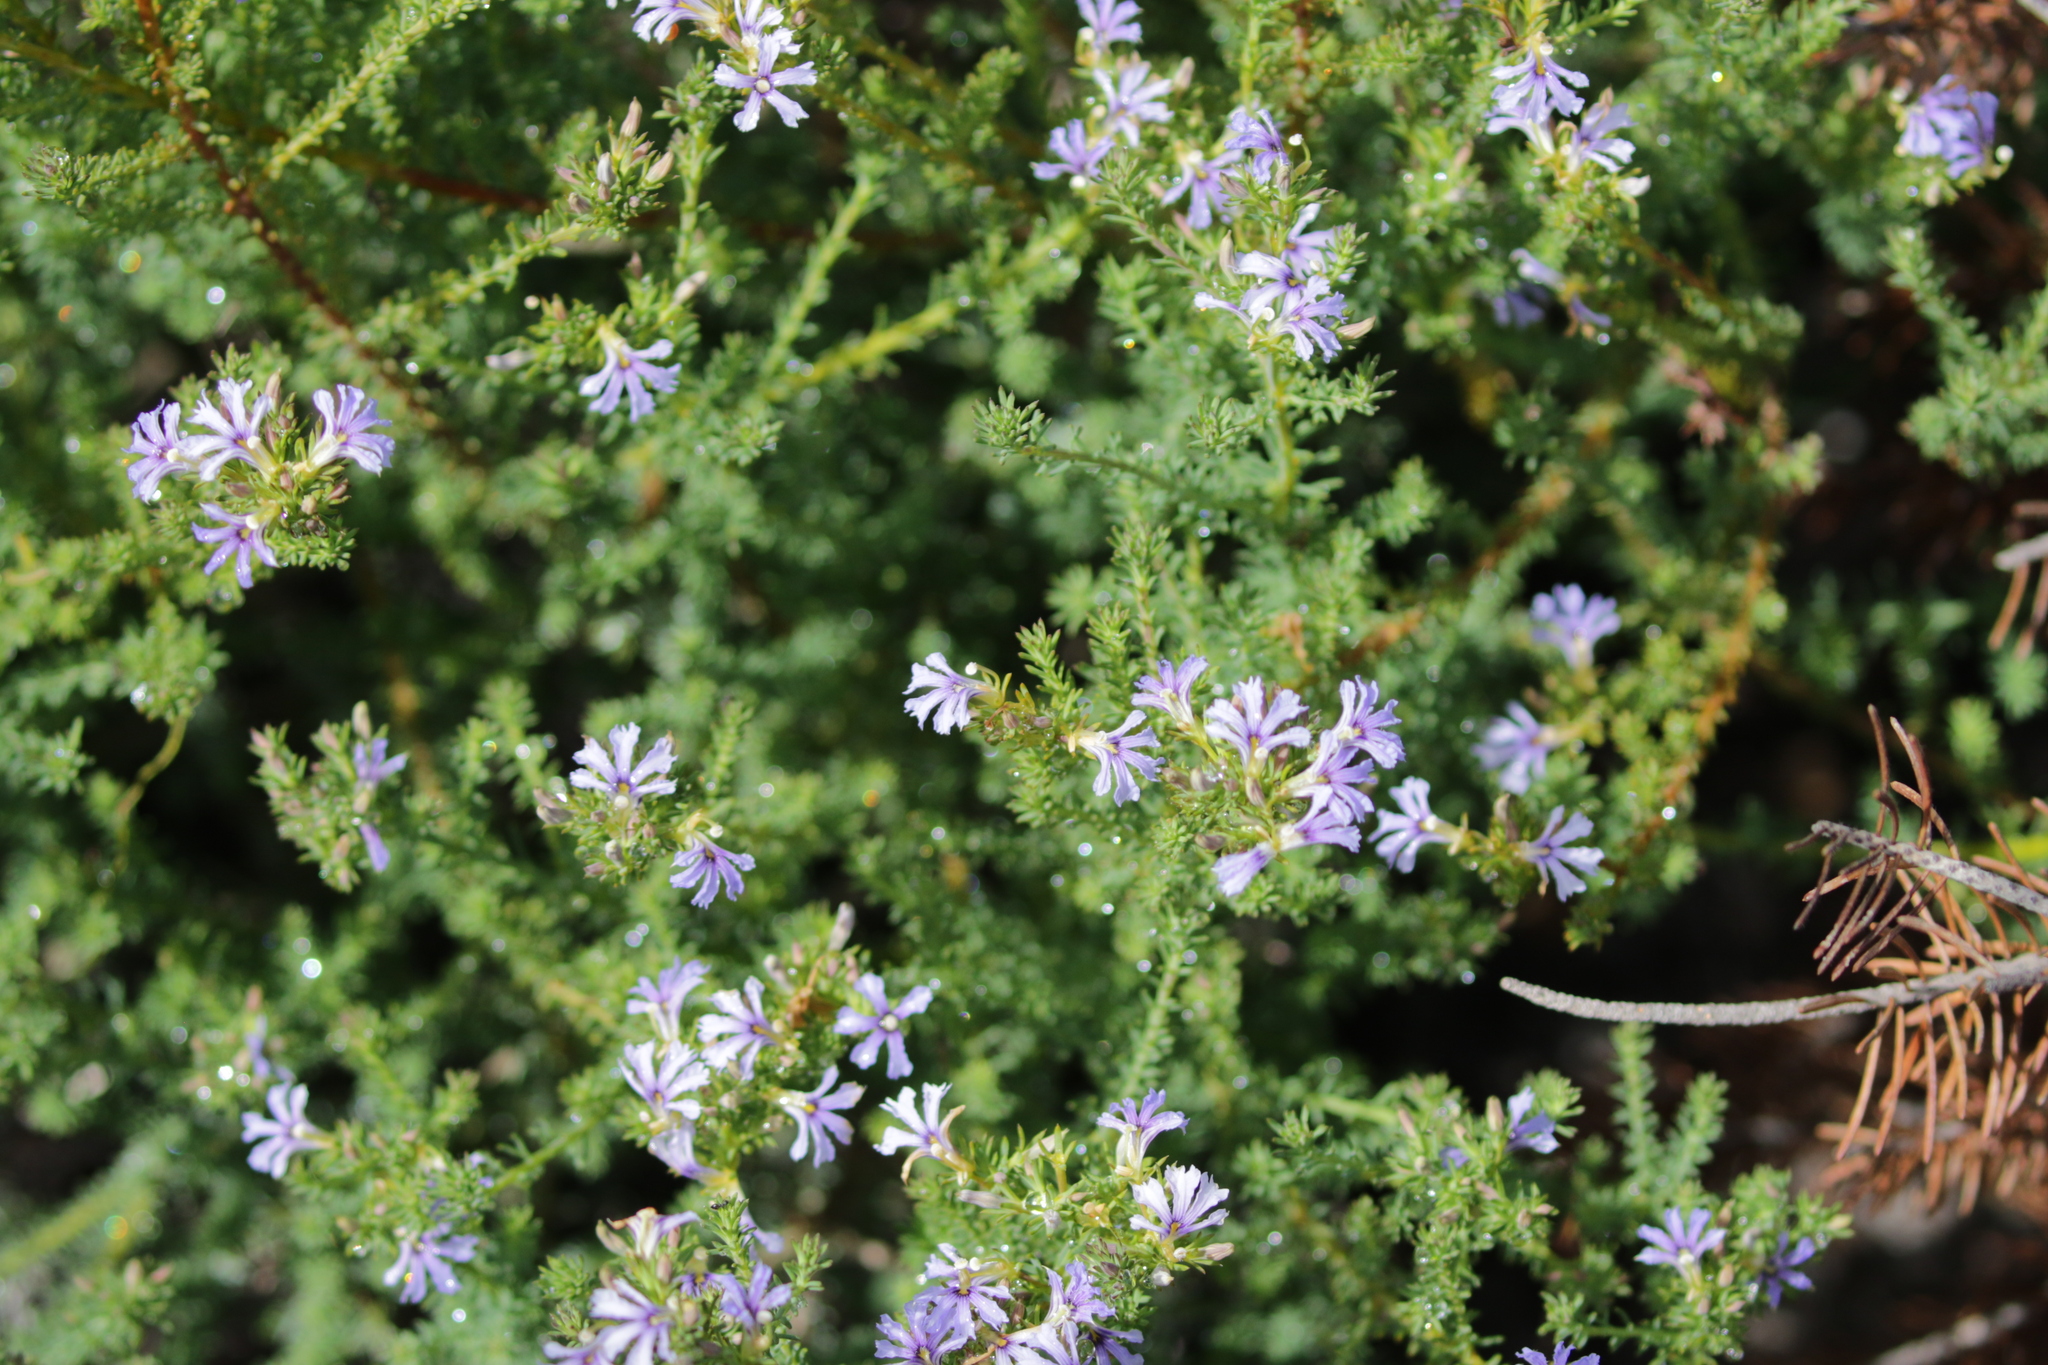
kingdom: Plantae
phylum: Tracheophyta
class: Magnoliopsida
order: Asterales
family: Goodeniaceae
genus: Lechenaultia
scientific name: Lechenaultia floribunda
